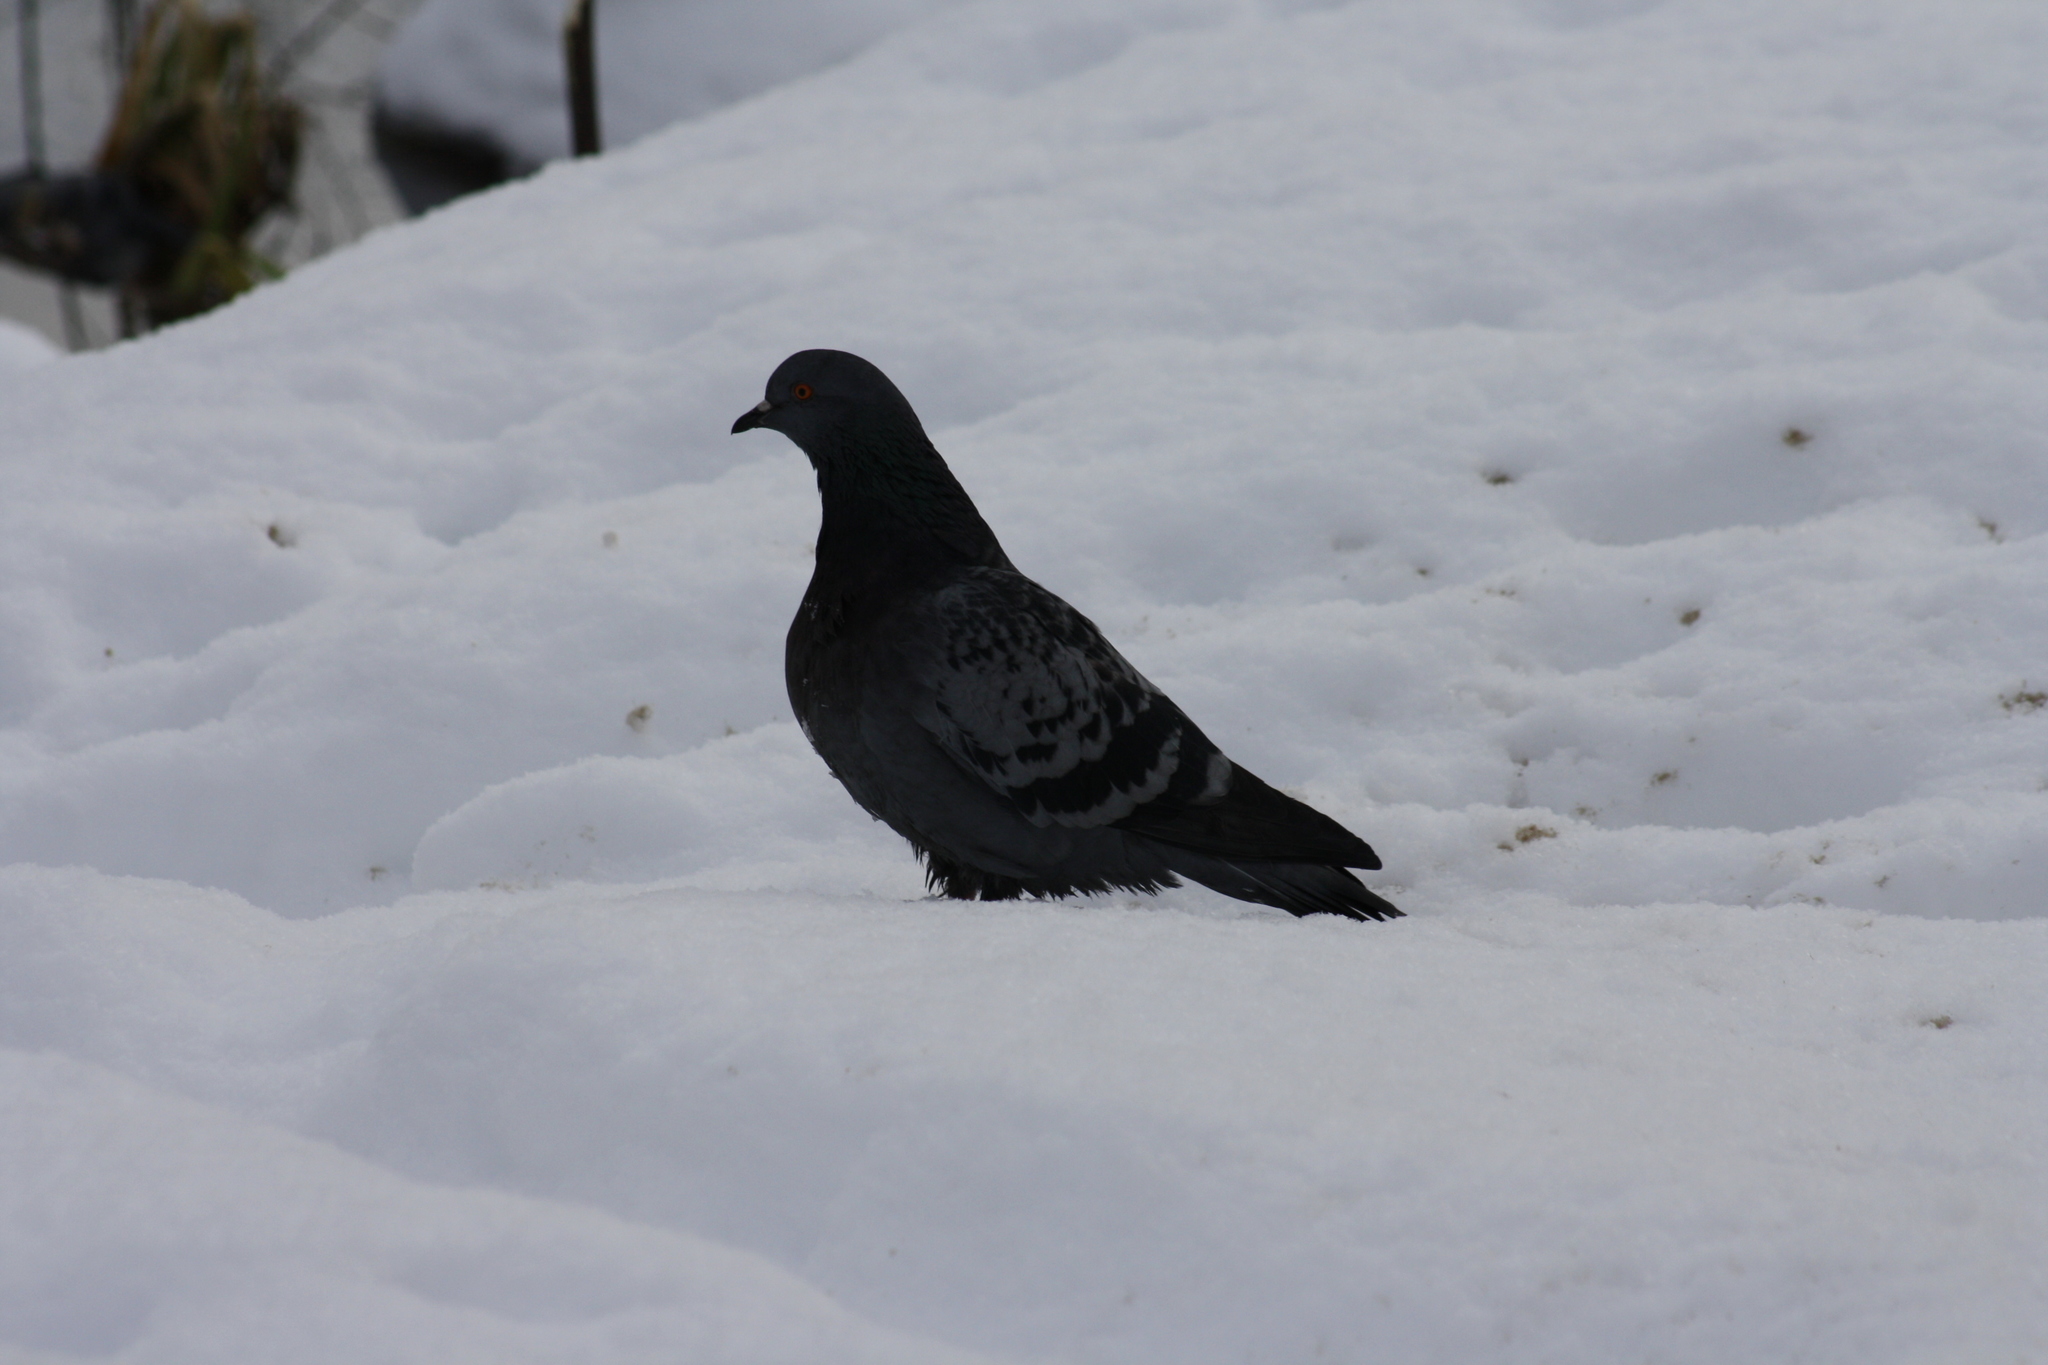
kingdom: Animalia
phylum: Chordata
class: Aves
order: Columbiformes
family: Columbidae
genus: Columba
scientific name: Columba livia
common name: Rock pigeon
